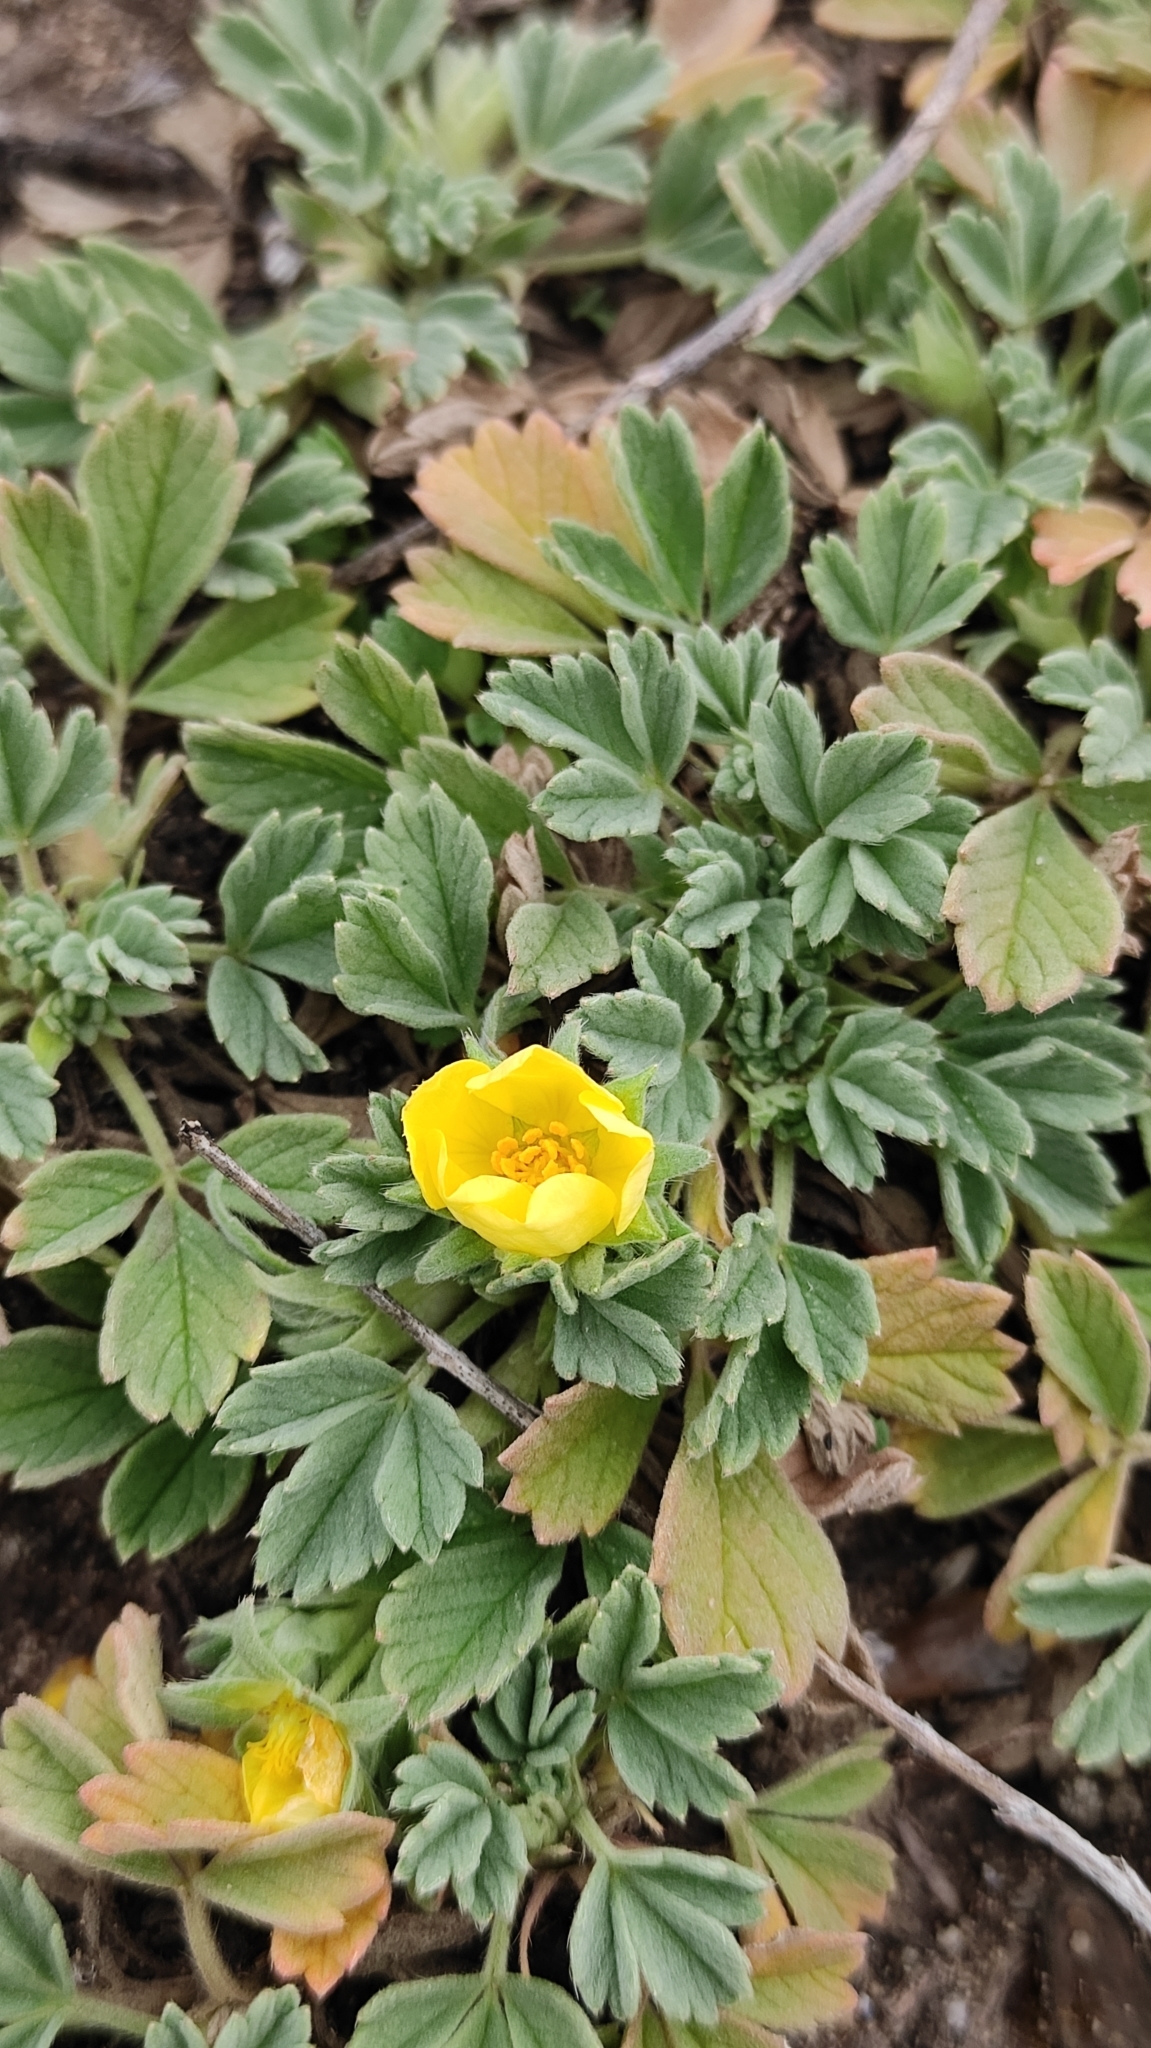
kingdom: Plantae
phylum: Tracheophyta
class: Magnoliopsida
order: Rosales
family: Rosaceae
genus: Potentilla
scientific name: Potentilla acaulis
